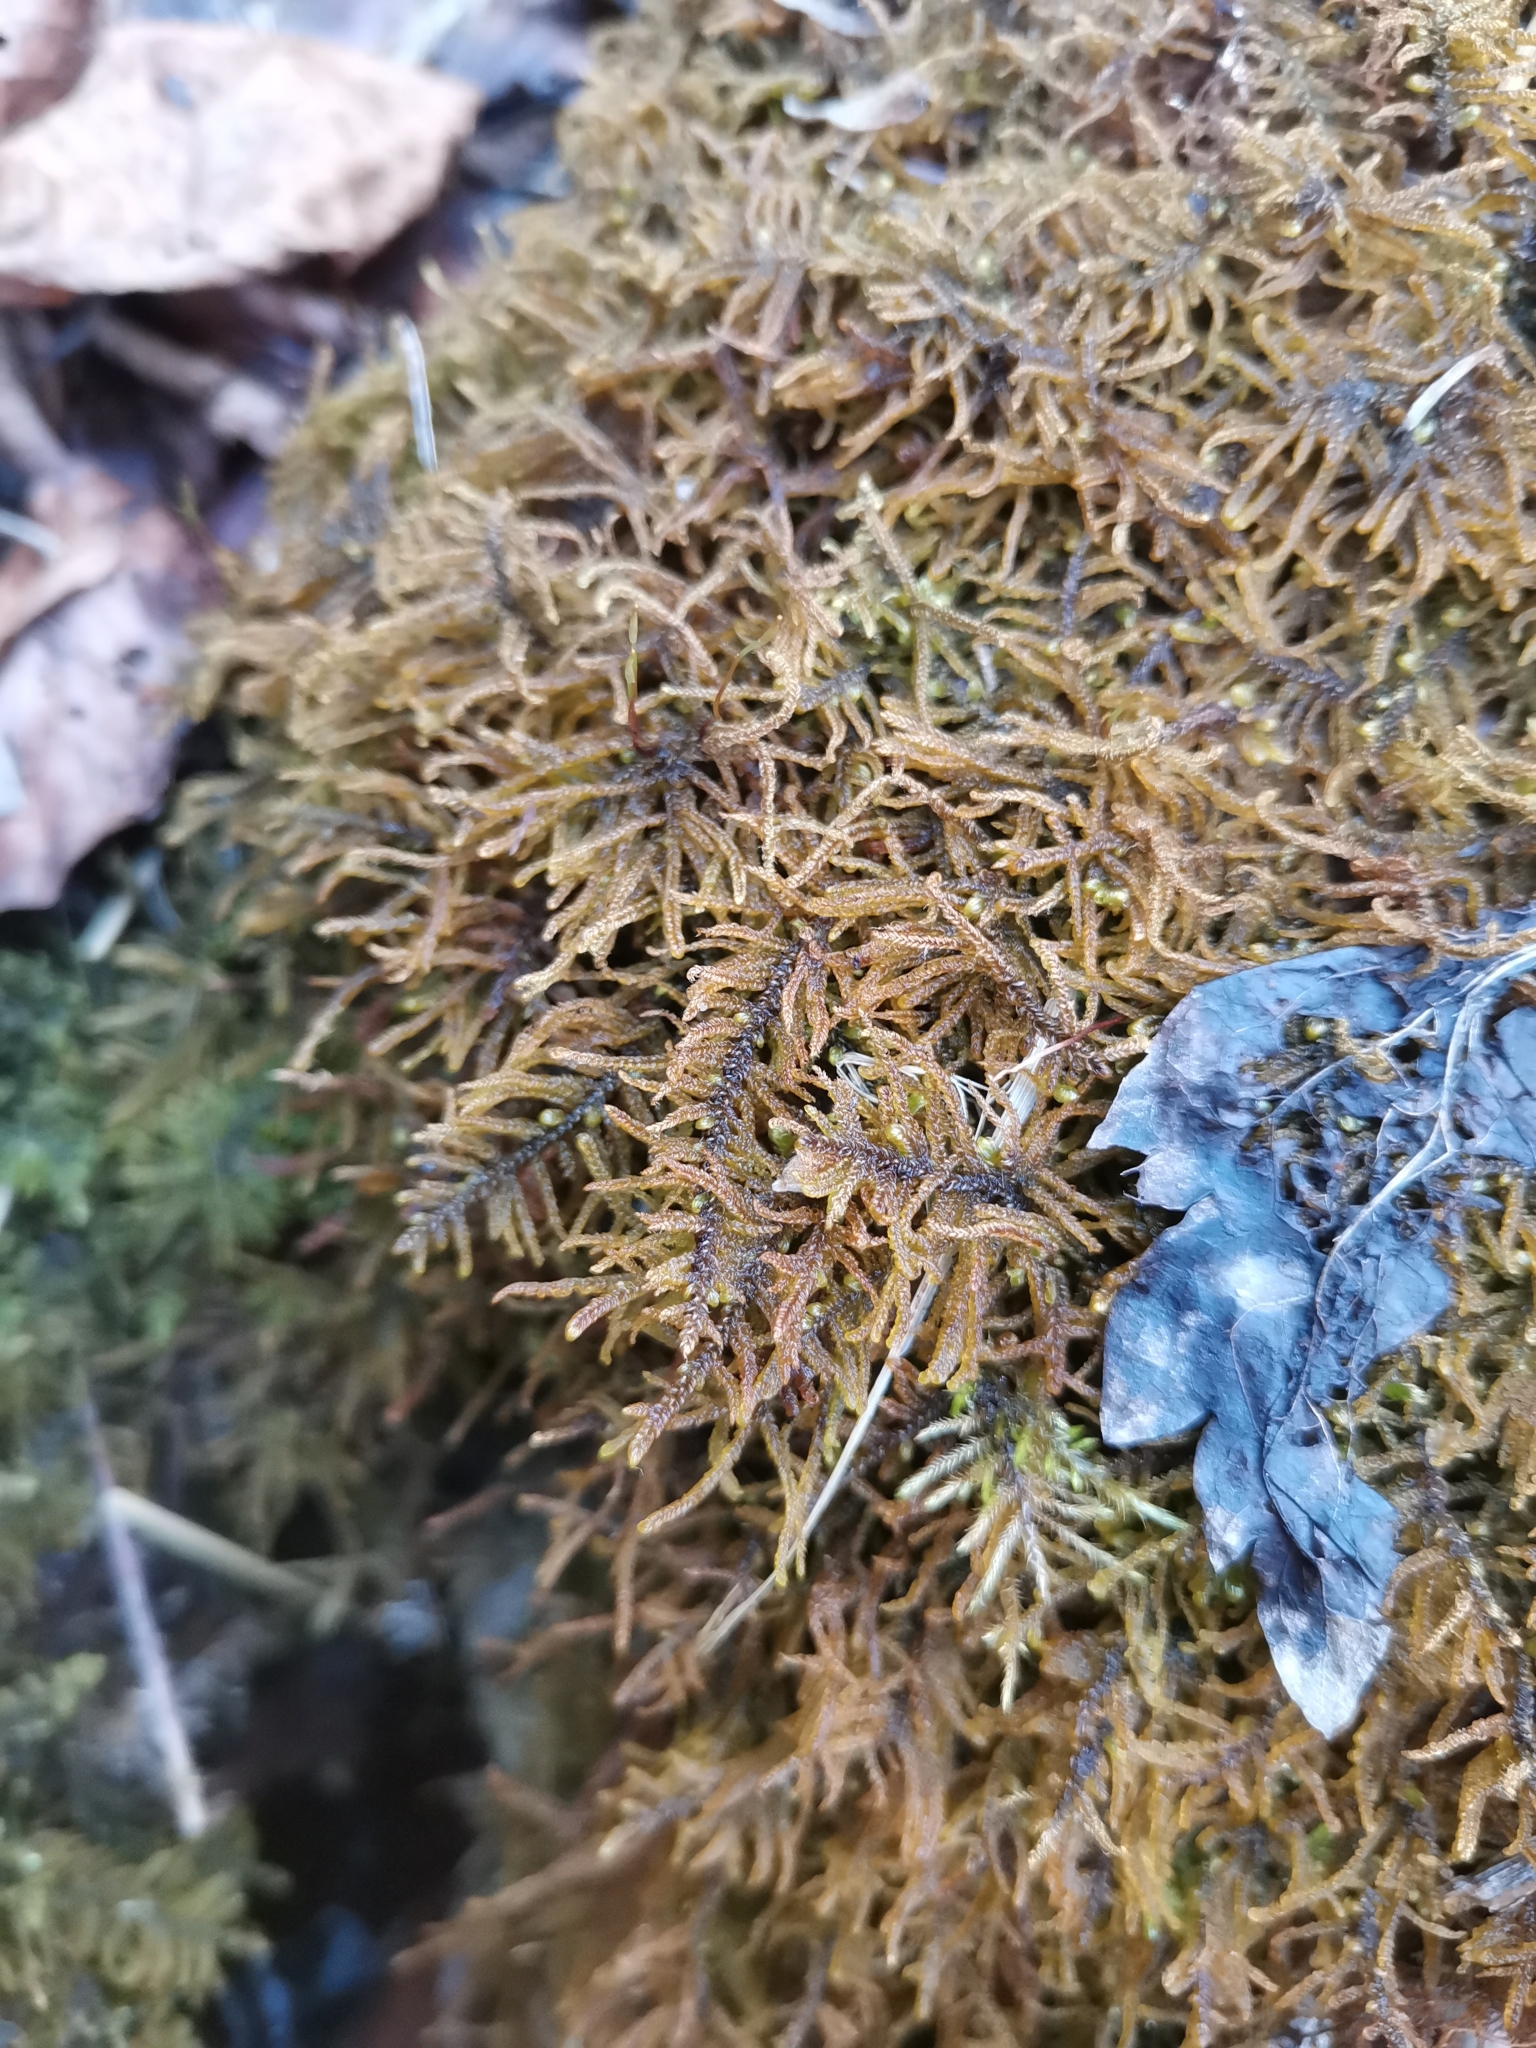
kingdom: Plantae
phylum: Bryophyta
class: Bryopsida
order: Hypnales
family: Amblystegiaceae
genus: Palustriella
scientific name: Palustriella commutata
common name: Curled hook-moss
